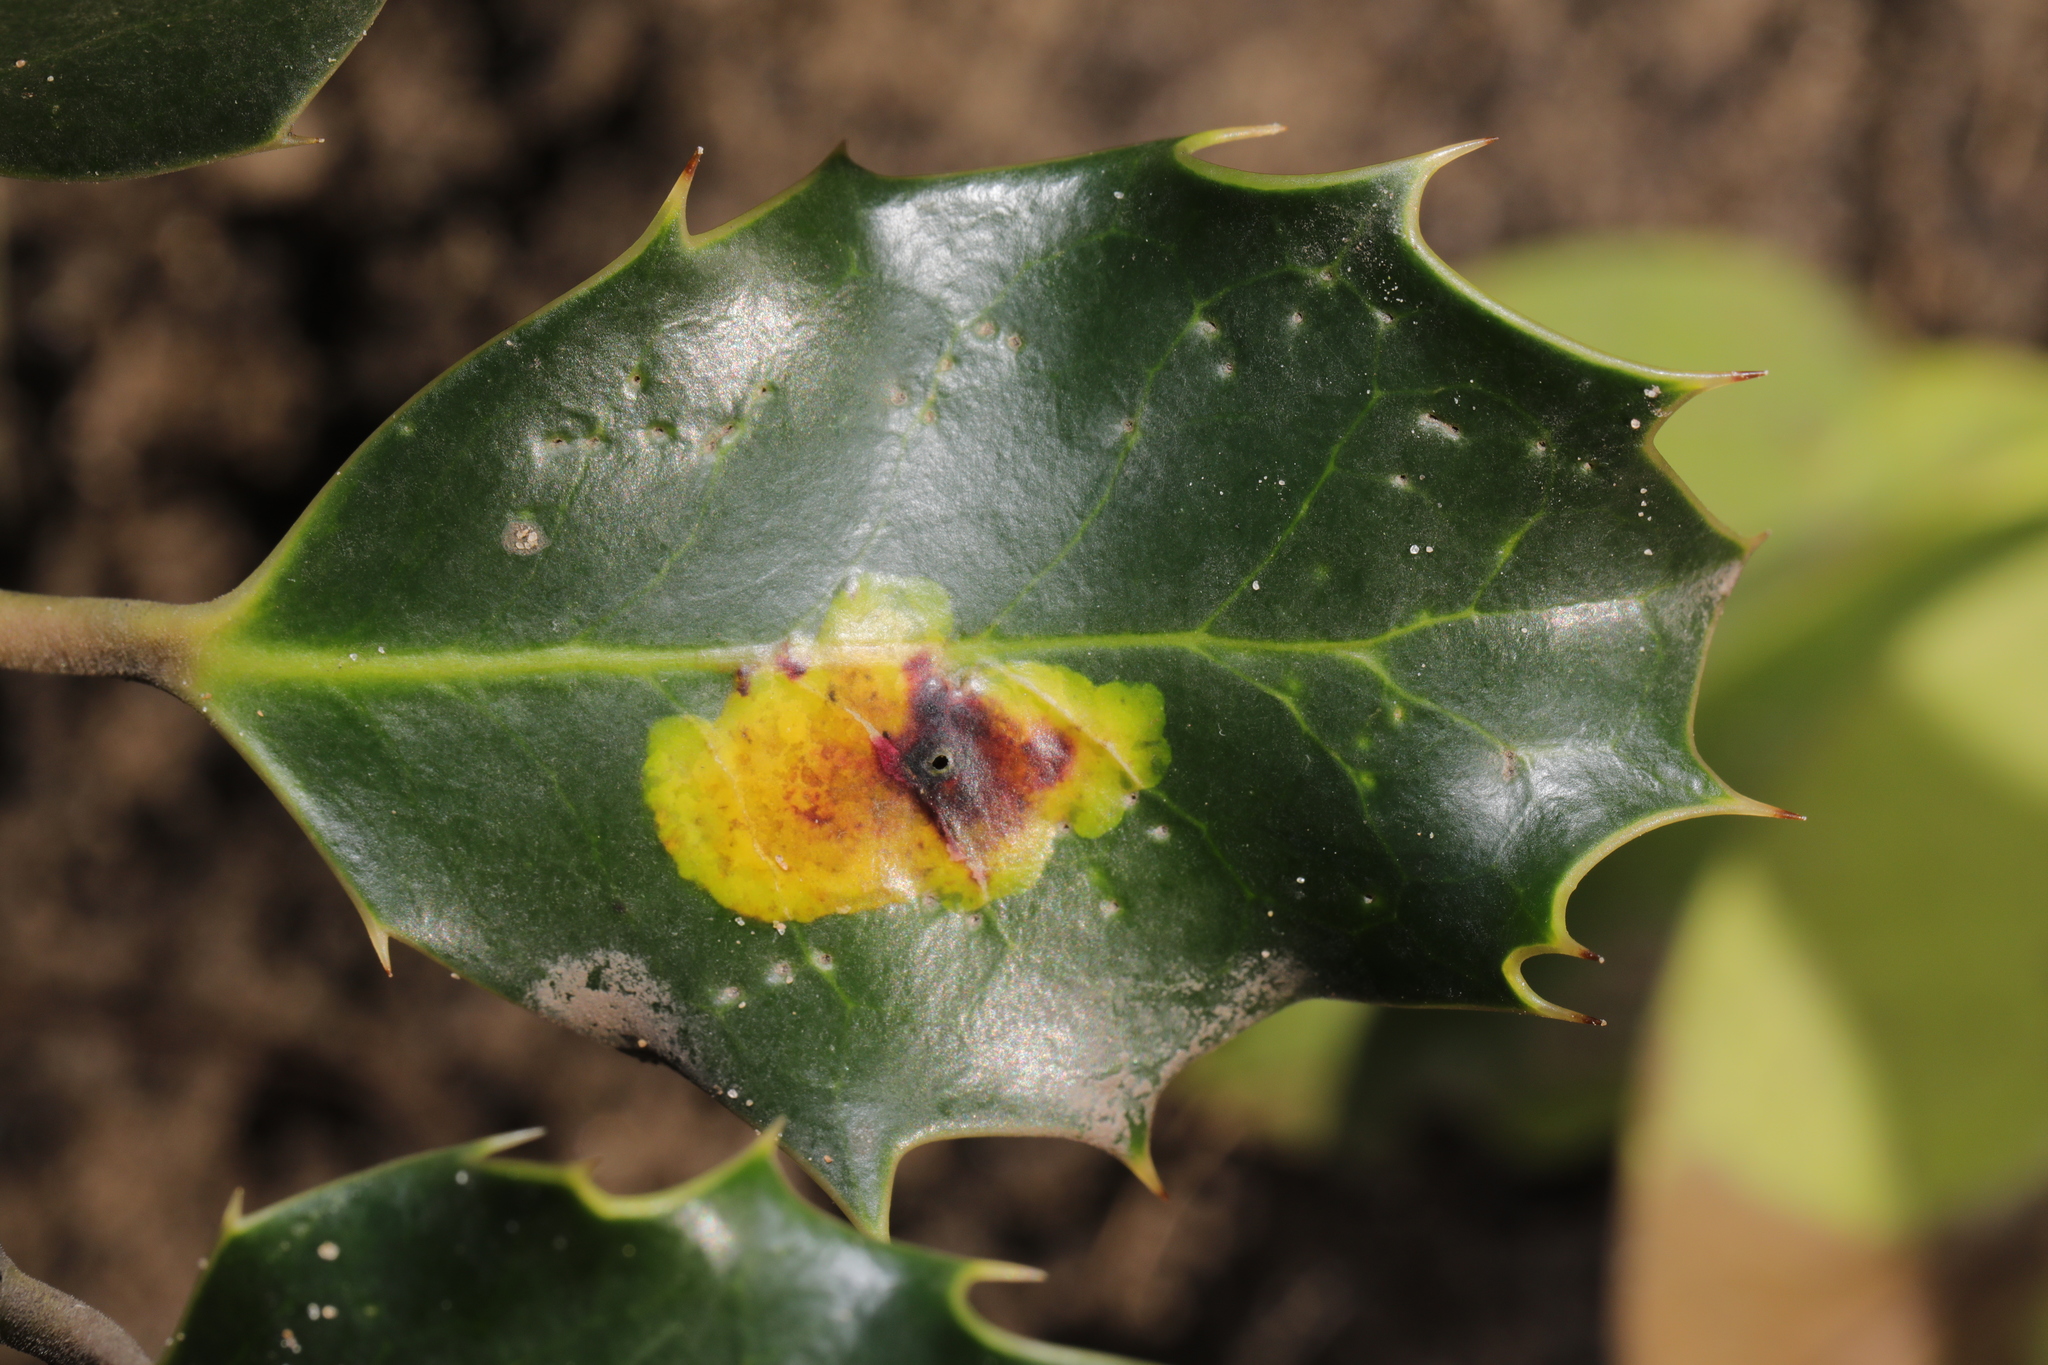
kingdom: Animalia
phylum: Arthropoda
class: Insecta
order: Diptera
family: Agromyzidae
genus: Phytomyza
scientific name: Phytomyza ilicis
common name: Holly leafminer
